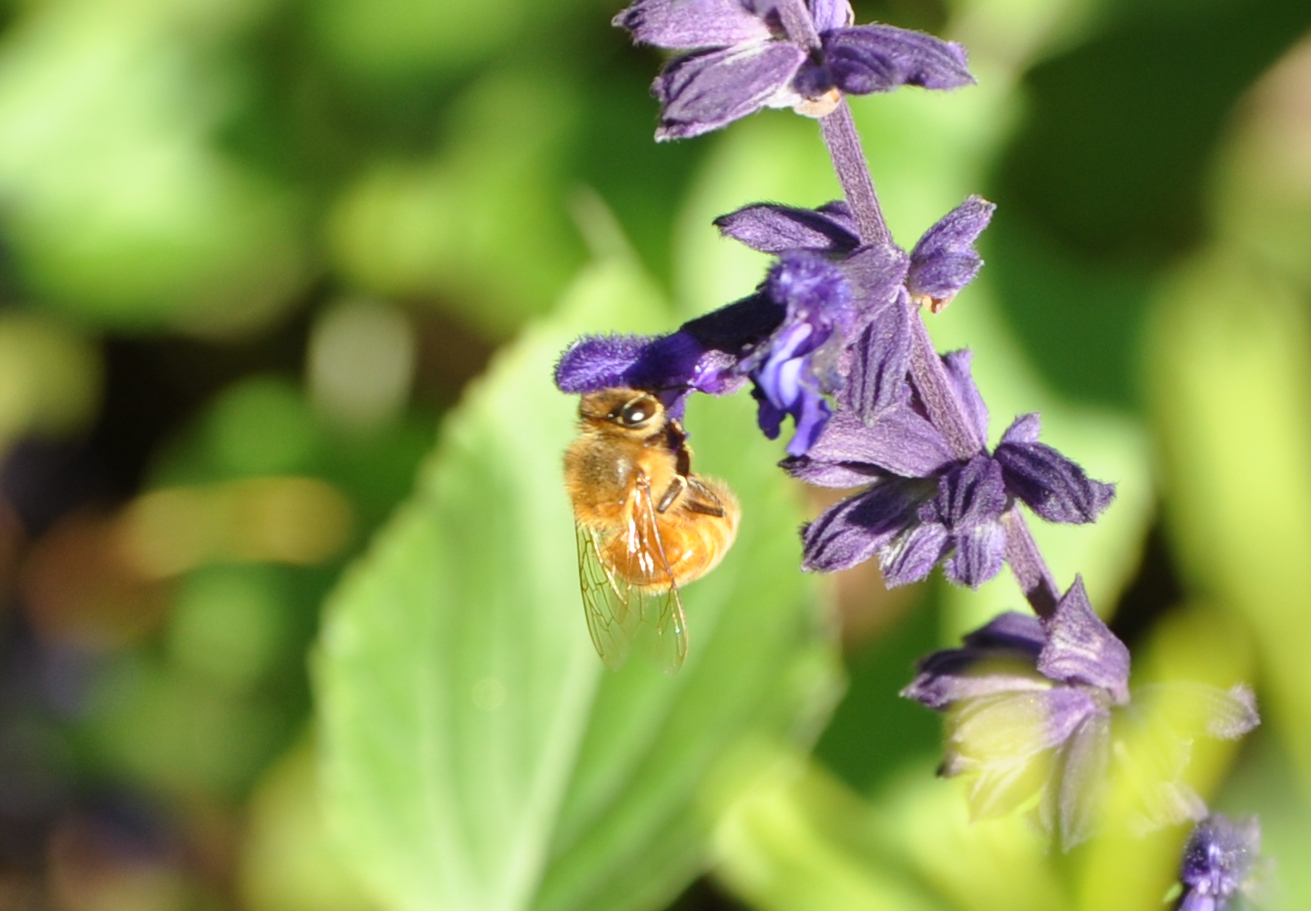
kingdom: Animalia
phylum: Arthropoda
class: Insecta
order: Hymenoptera
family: Apidae
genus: Apis
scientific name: Apis mellifera
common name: Honey bee
